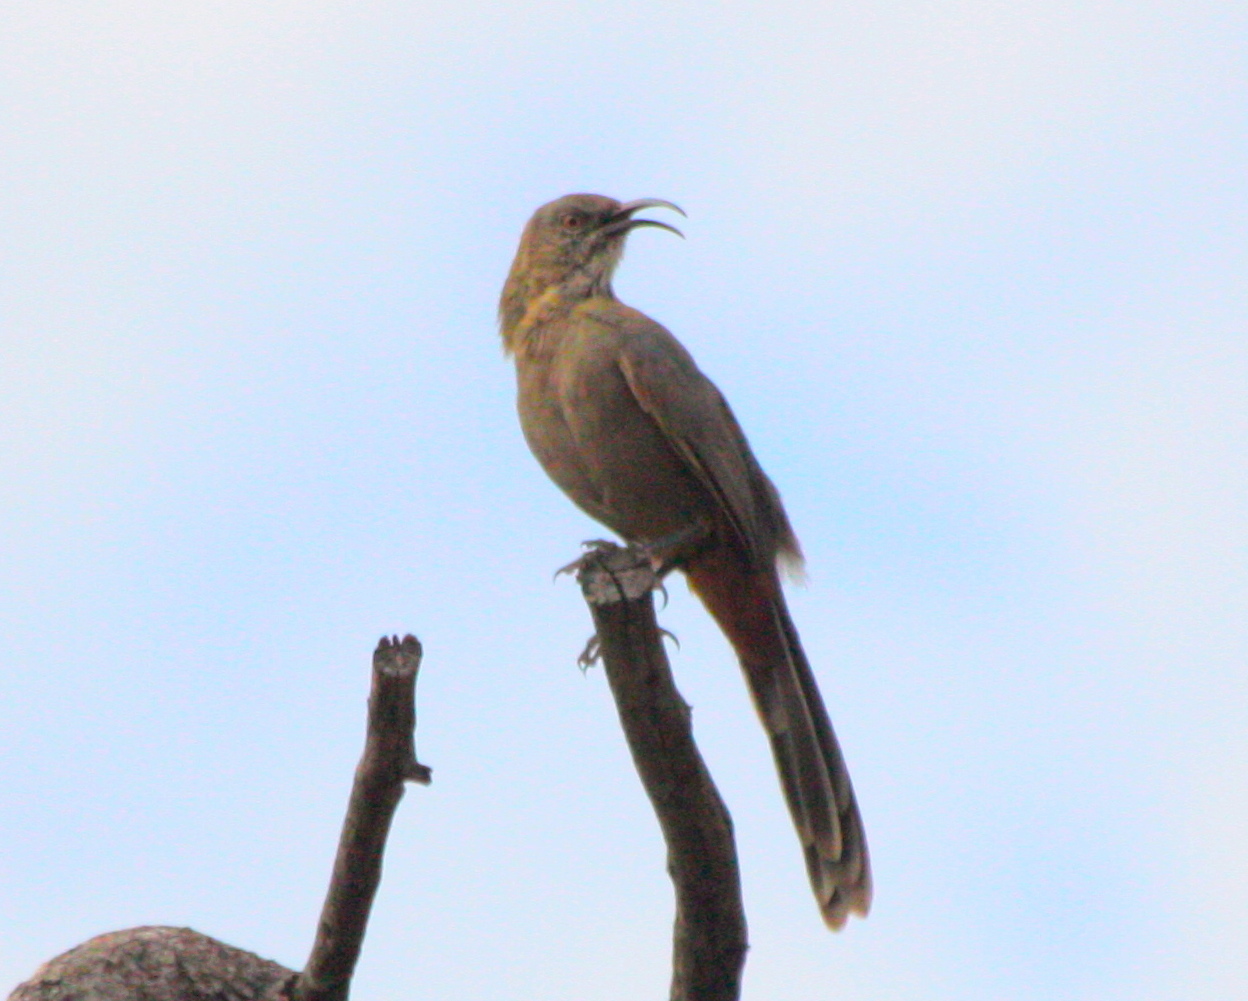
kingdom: Animalia
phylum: Chordata
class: Aves
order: Passeriformes
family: Mimidae
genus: Toxostoma
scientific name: Toxostoma crissale
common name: Crissal thrasher
